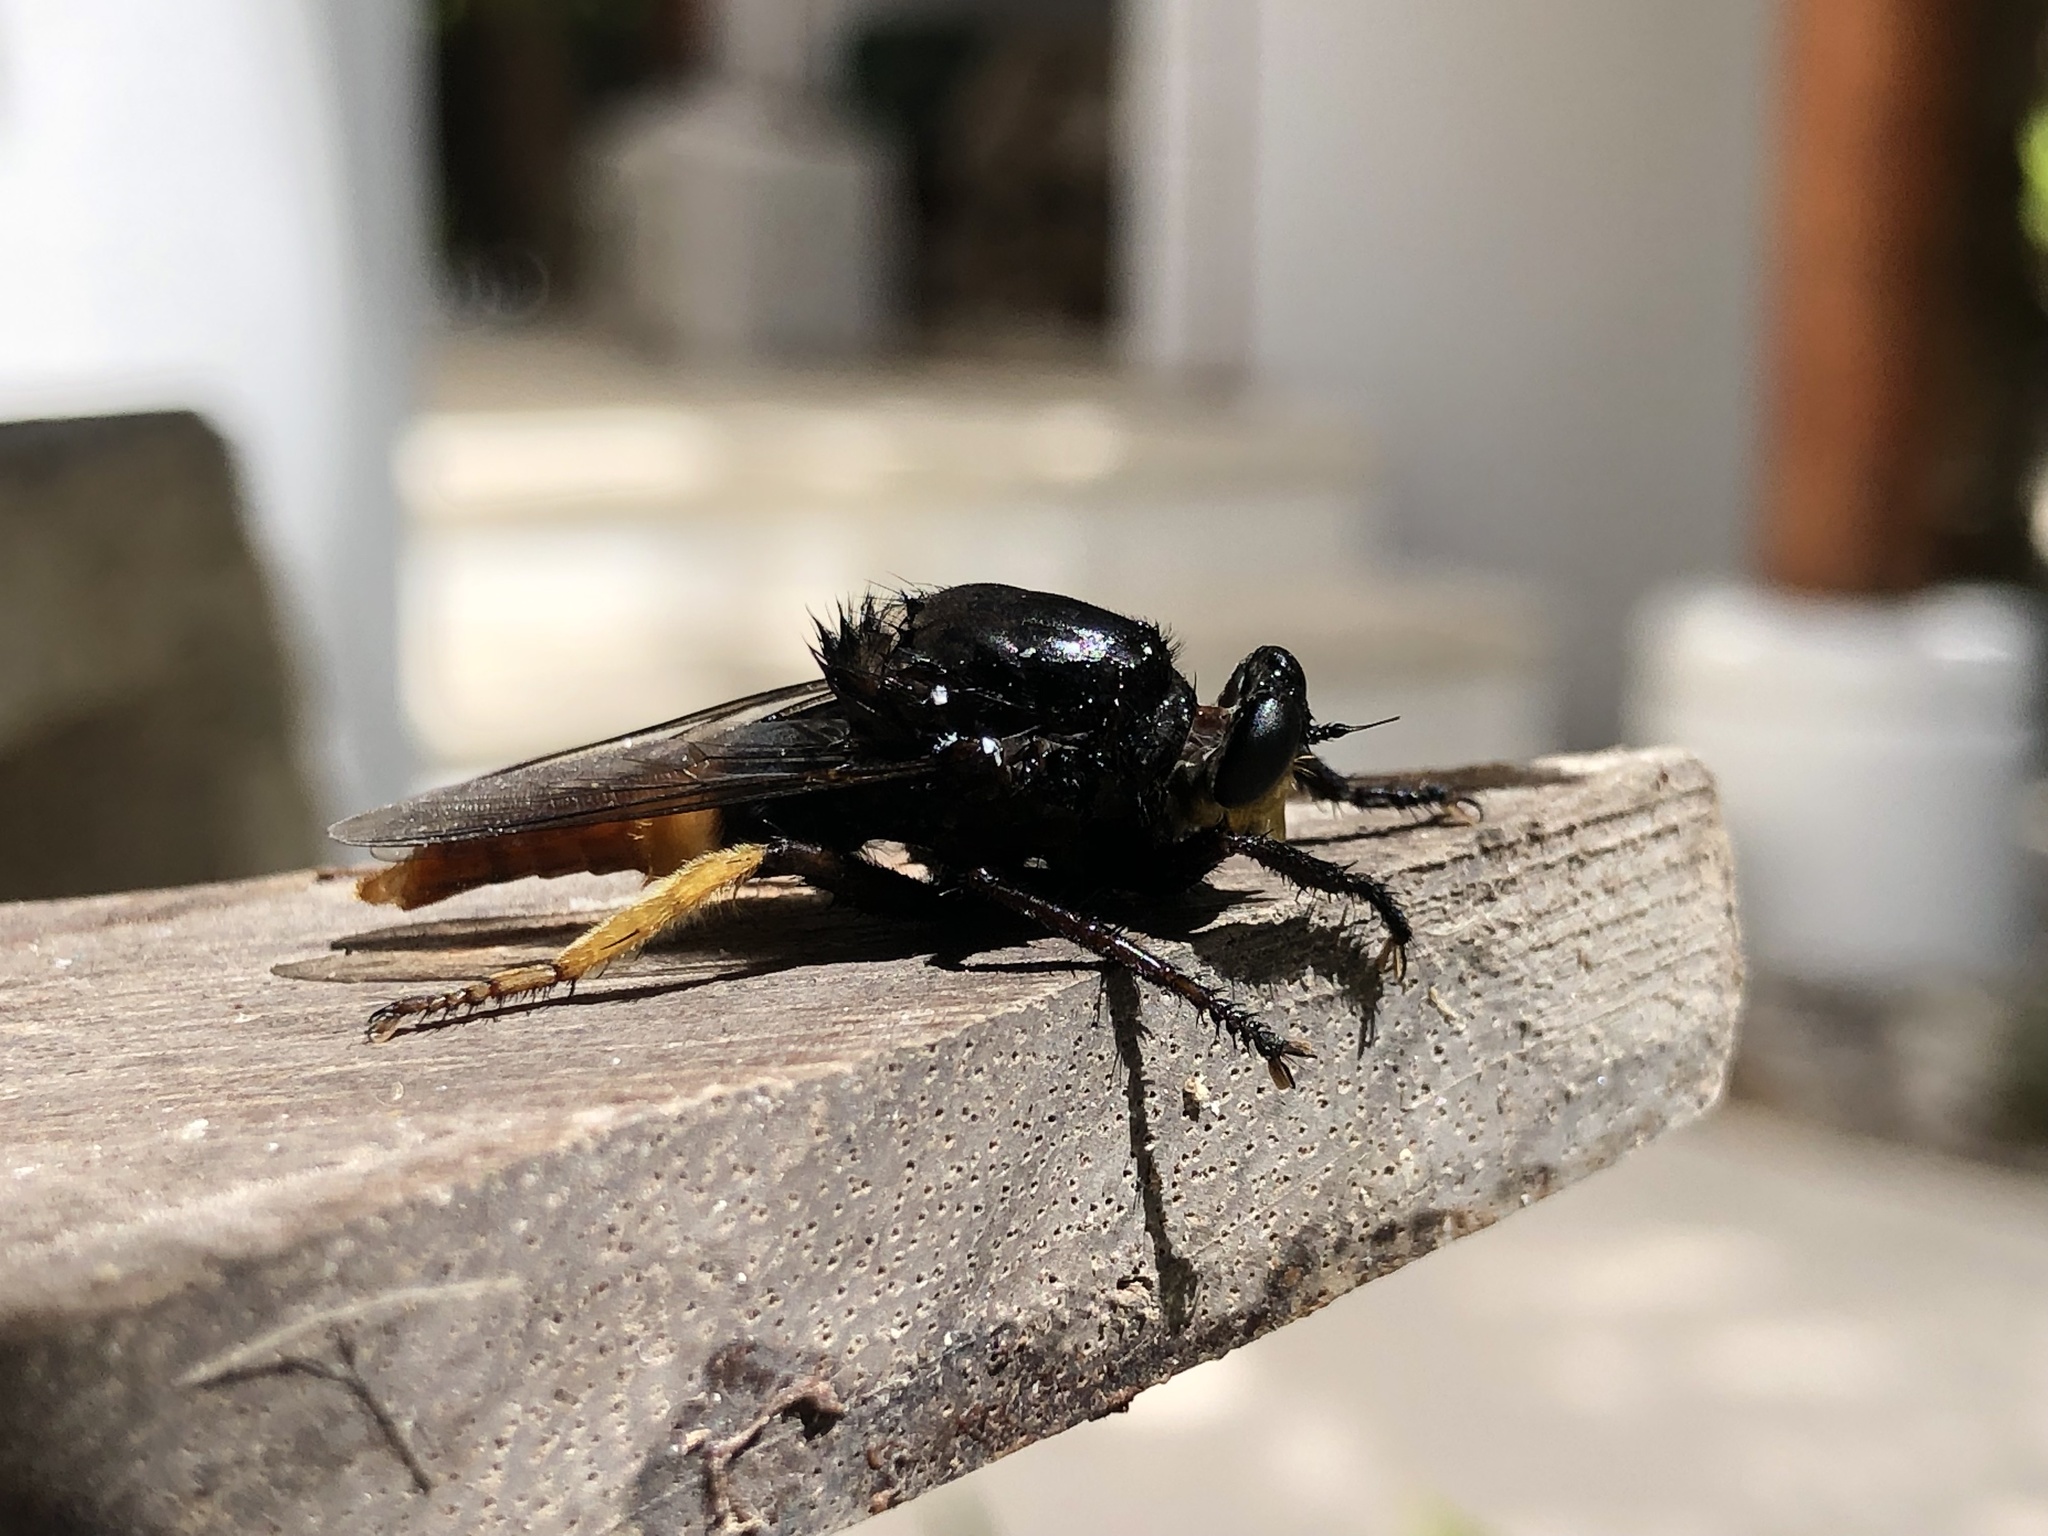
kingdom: Animalia
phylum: Arthropoda
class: Insecta
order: Diptera
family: Asilidae
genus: Eccritosia
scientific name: Eccritosia zamon
